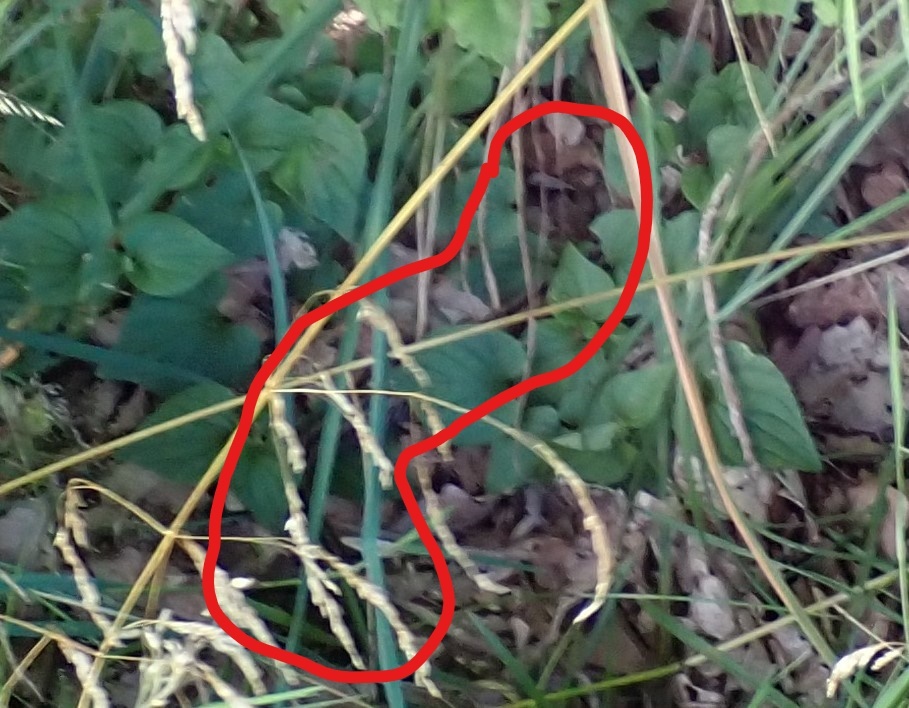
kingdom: Animalia
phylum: Chordata
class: Squamata
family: Viperidae
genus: Vipera
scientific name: Vipera berus
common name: Adder
